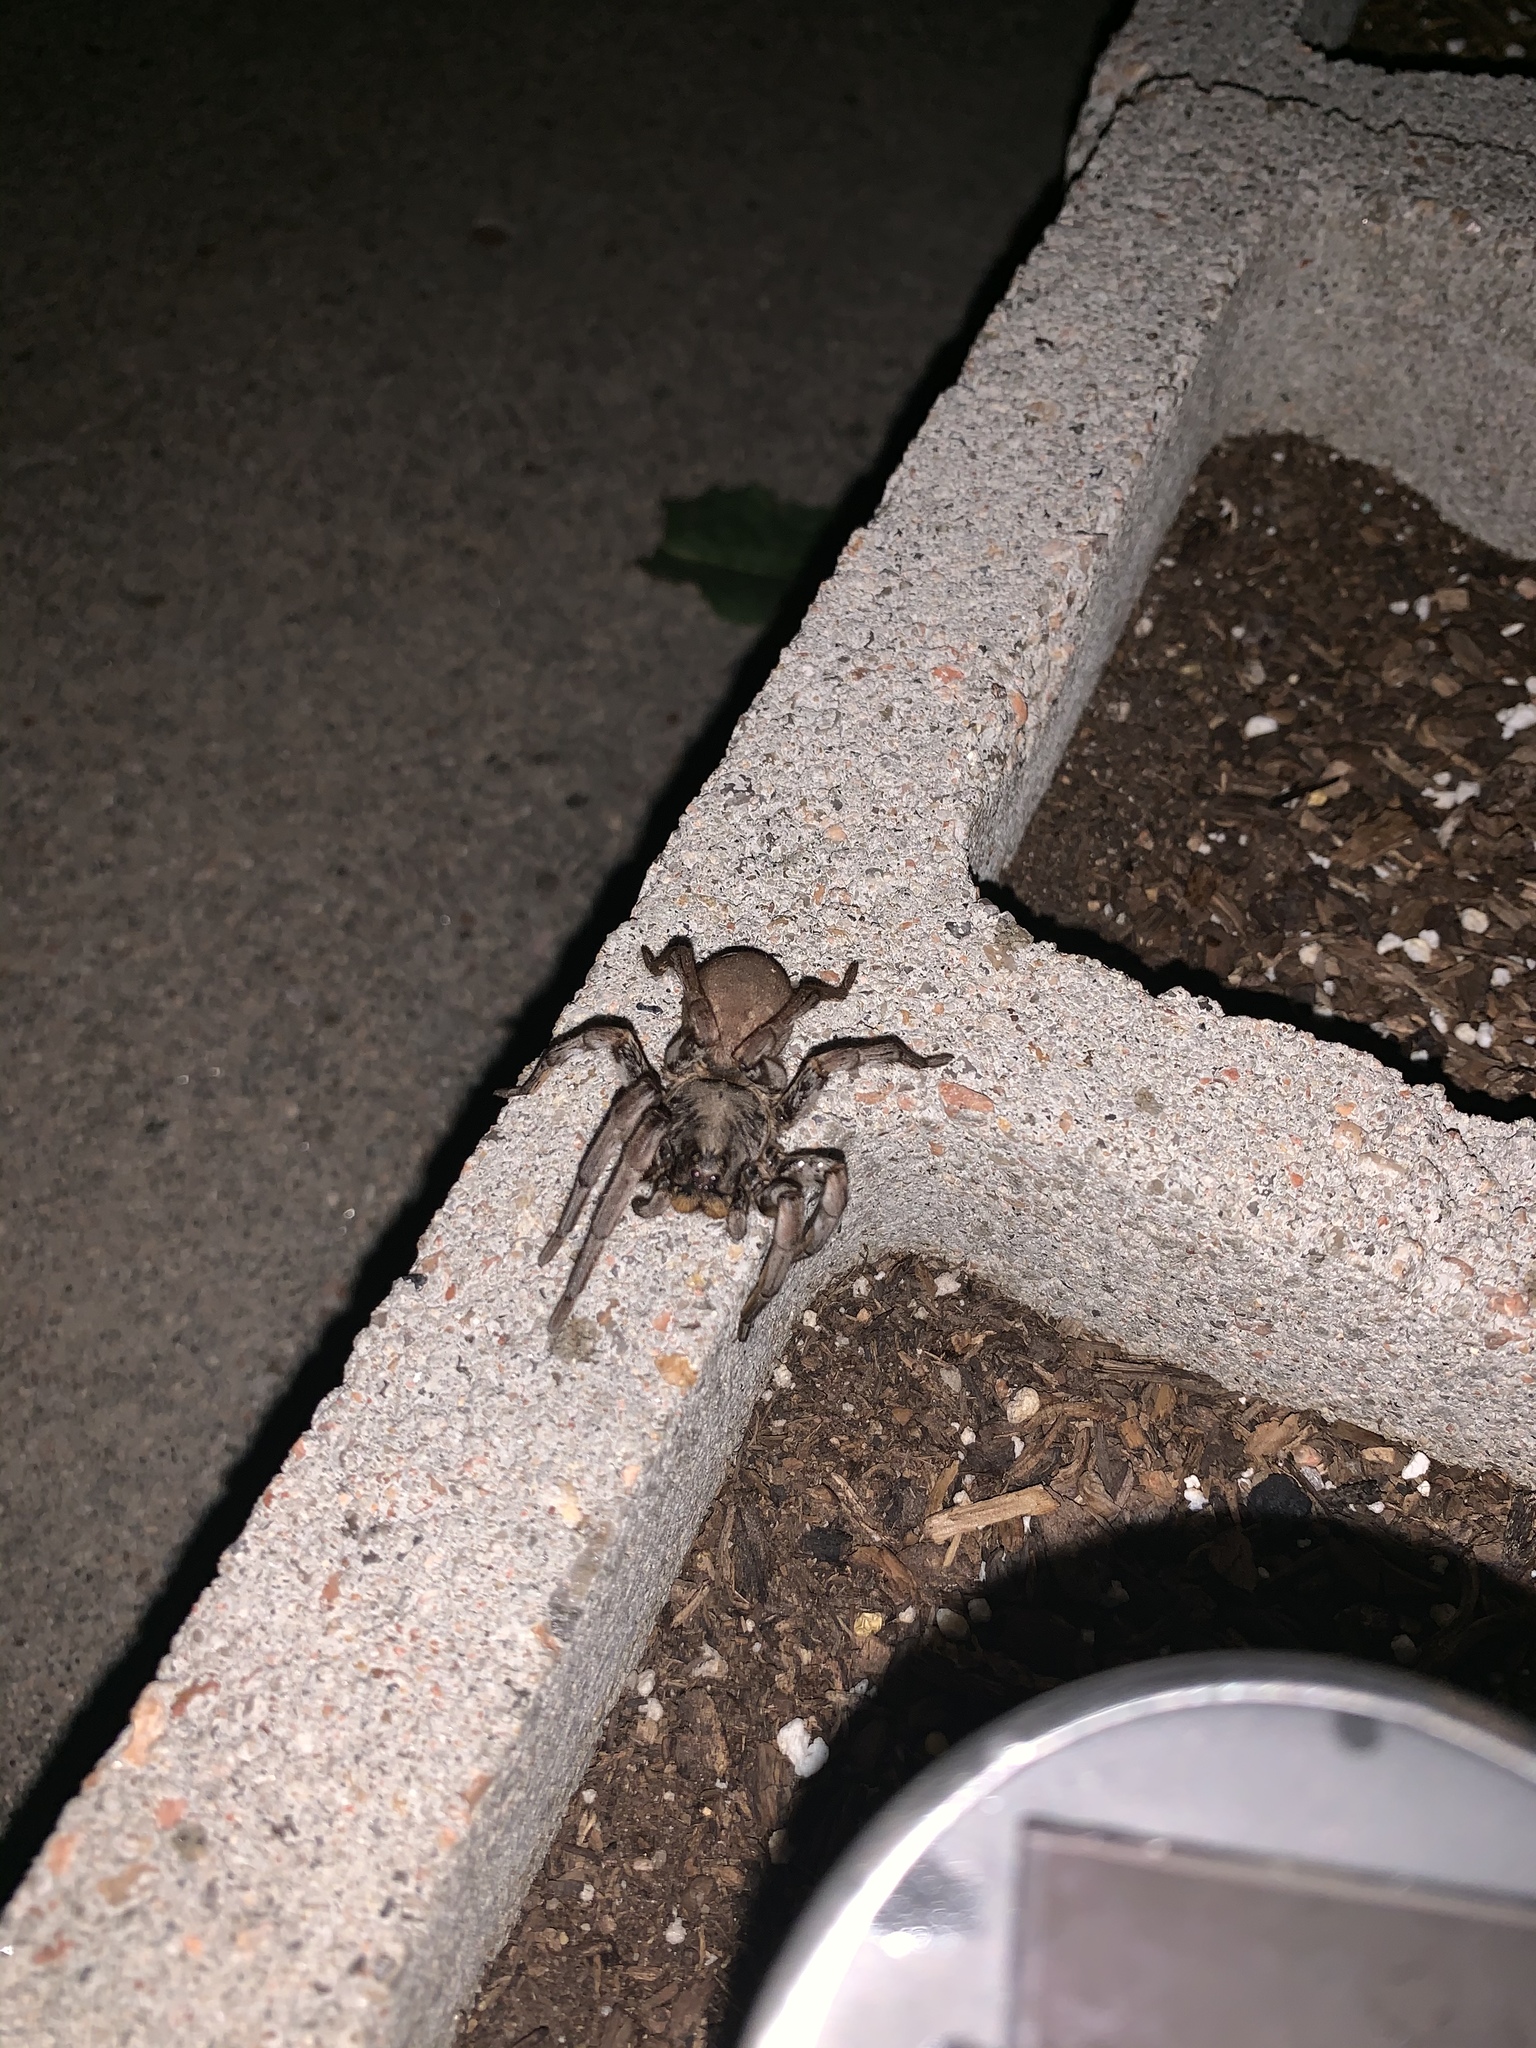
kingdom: Animalia
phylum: Arthropoda
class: Arachnida
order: Araneae
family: Lycosidae
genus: Hogna
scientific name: Hogna carolinensis
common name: Carolina wolf spider
